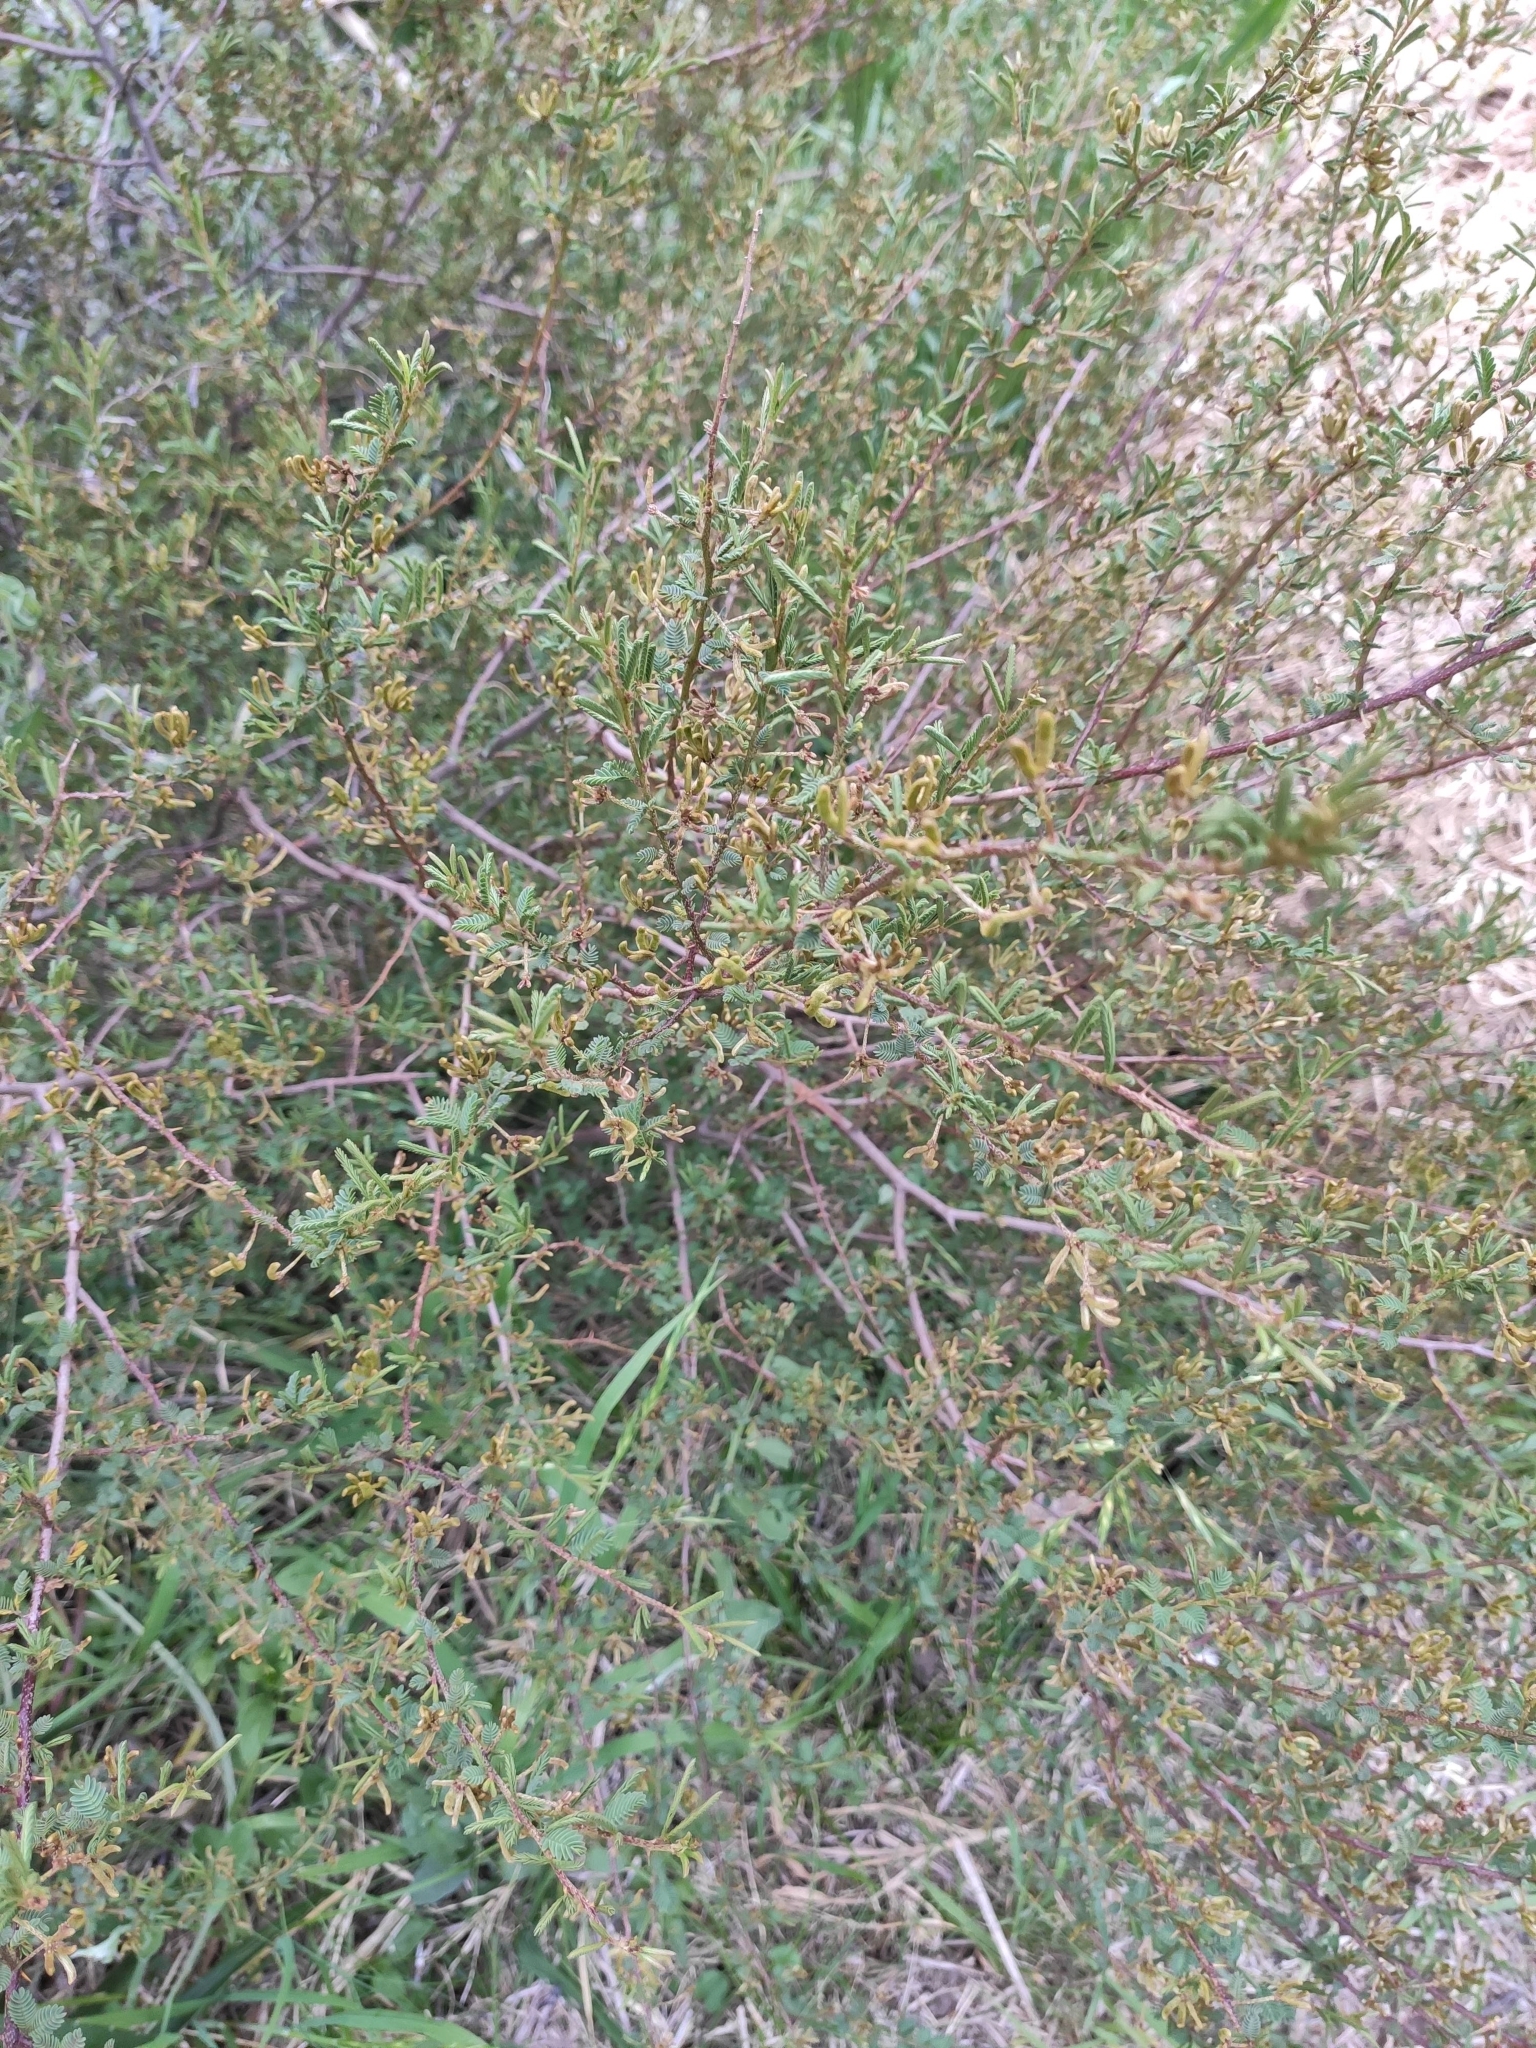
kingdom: Plantae
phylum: Tracheophyta
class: Magnoliopsida
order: Fabales
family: Fabaceae
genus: Mimosa
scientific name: Mimosa magentea
